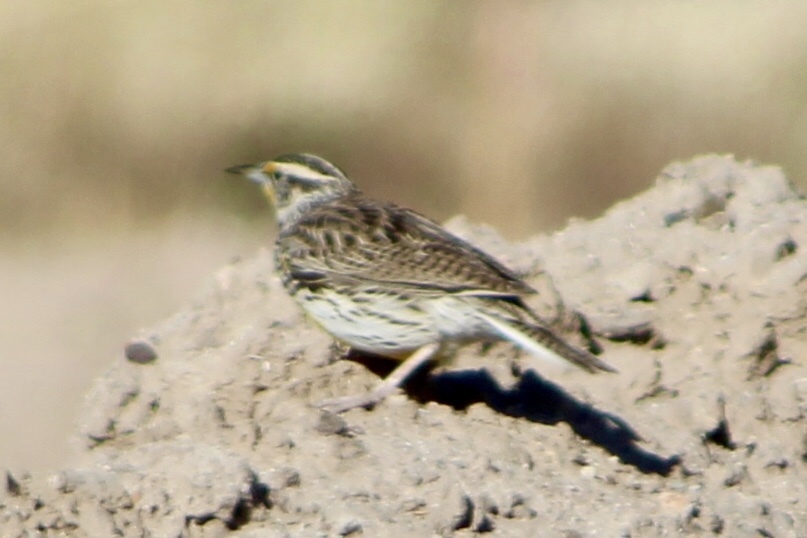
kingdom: Animalia
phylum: Chordata
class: Aves
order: Passeriformes
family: Icteridae
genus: Sturnella
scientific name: Sturnella neglecta
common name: Western meadowlark
